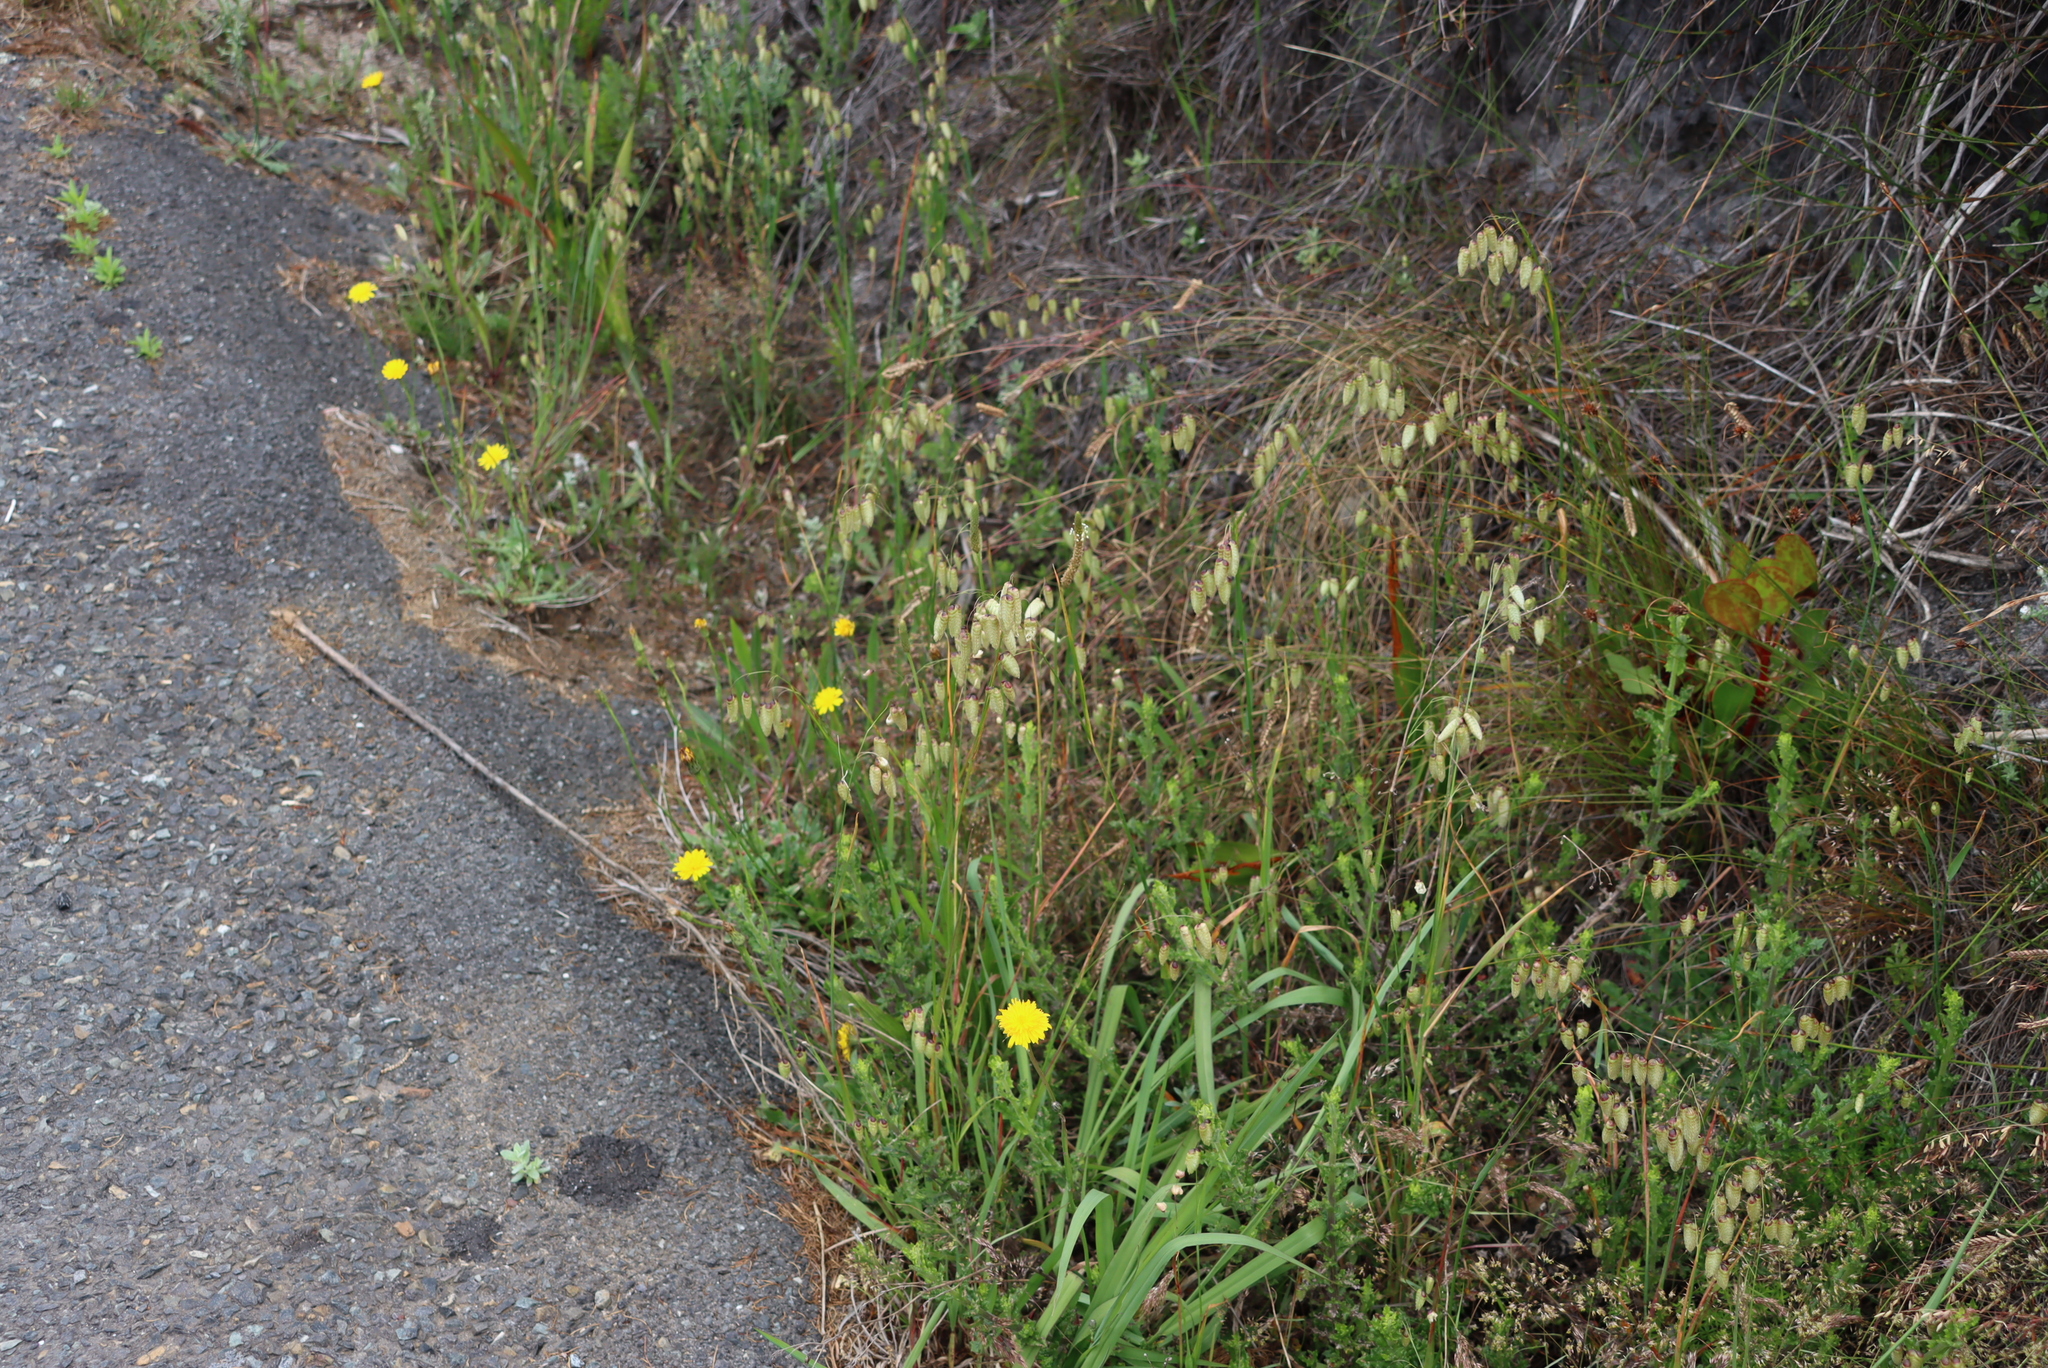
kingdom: Plantae
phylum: Tracheophyta
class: Liliopsida
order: Poales
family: Poaceae
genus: Briza
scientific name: Briza maxima
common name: Big quakinggrass
